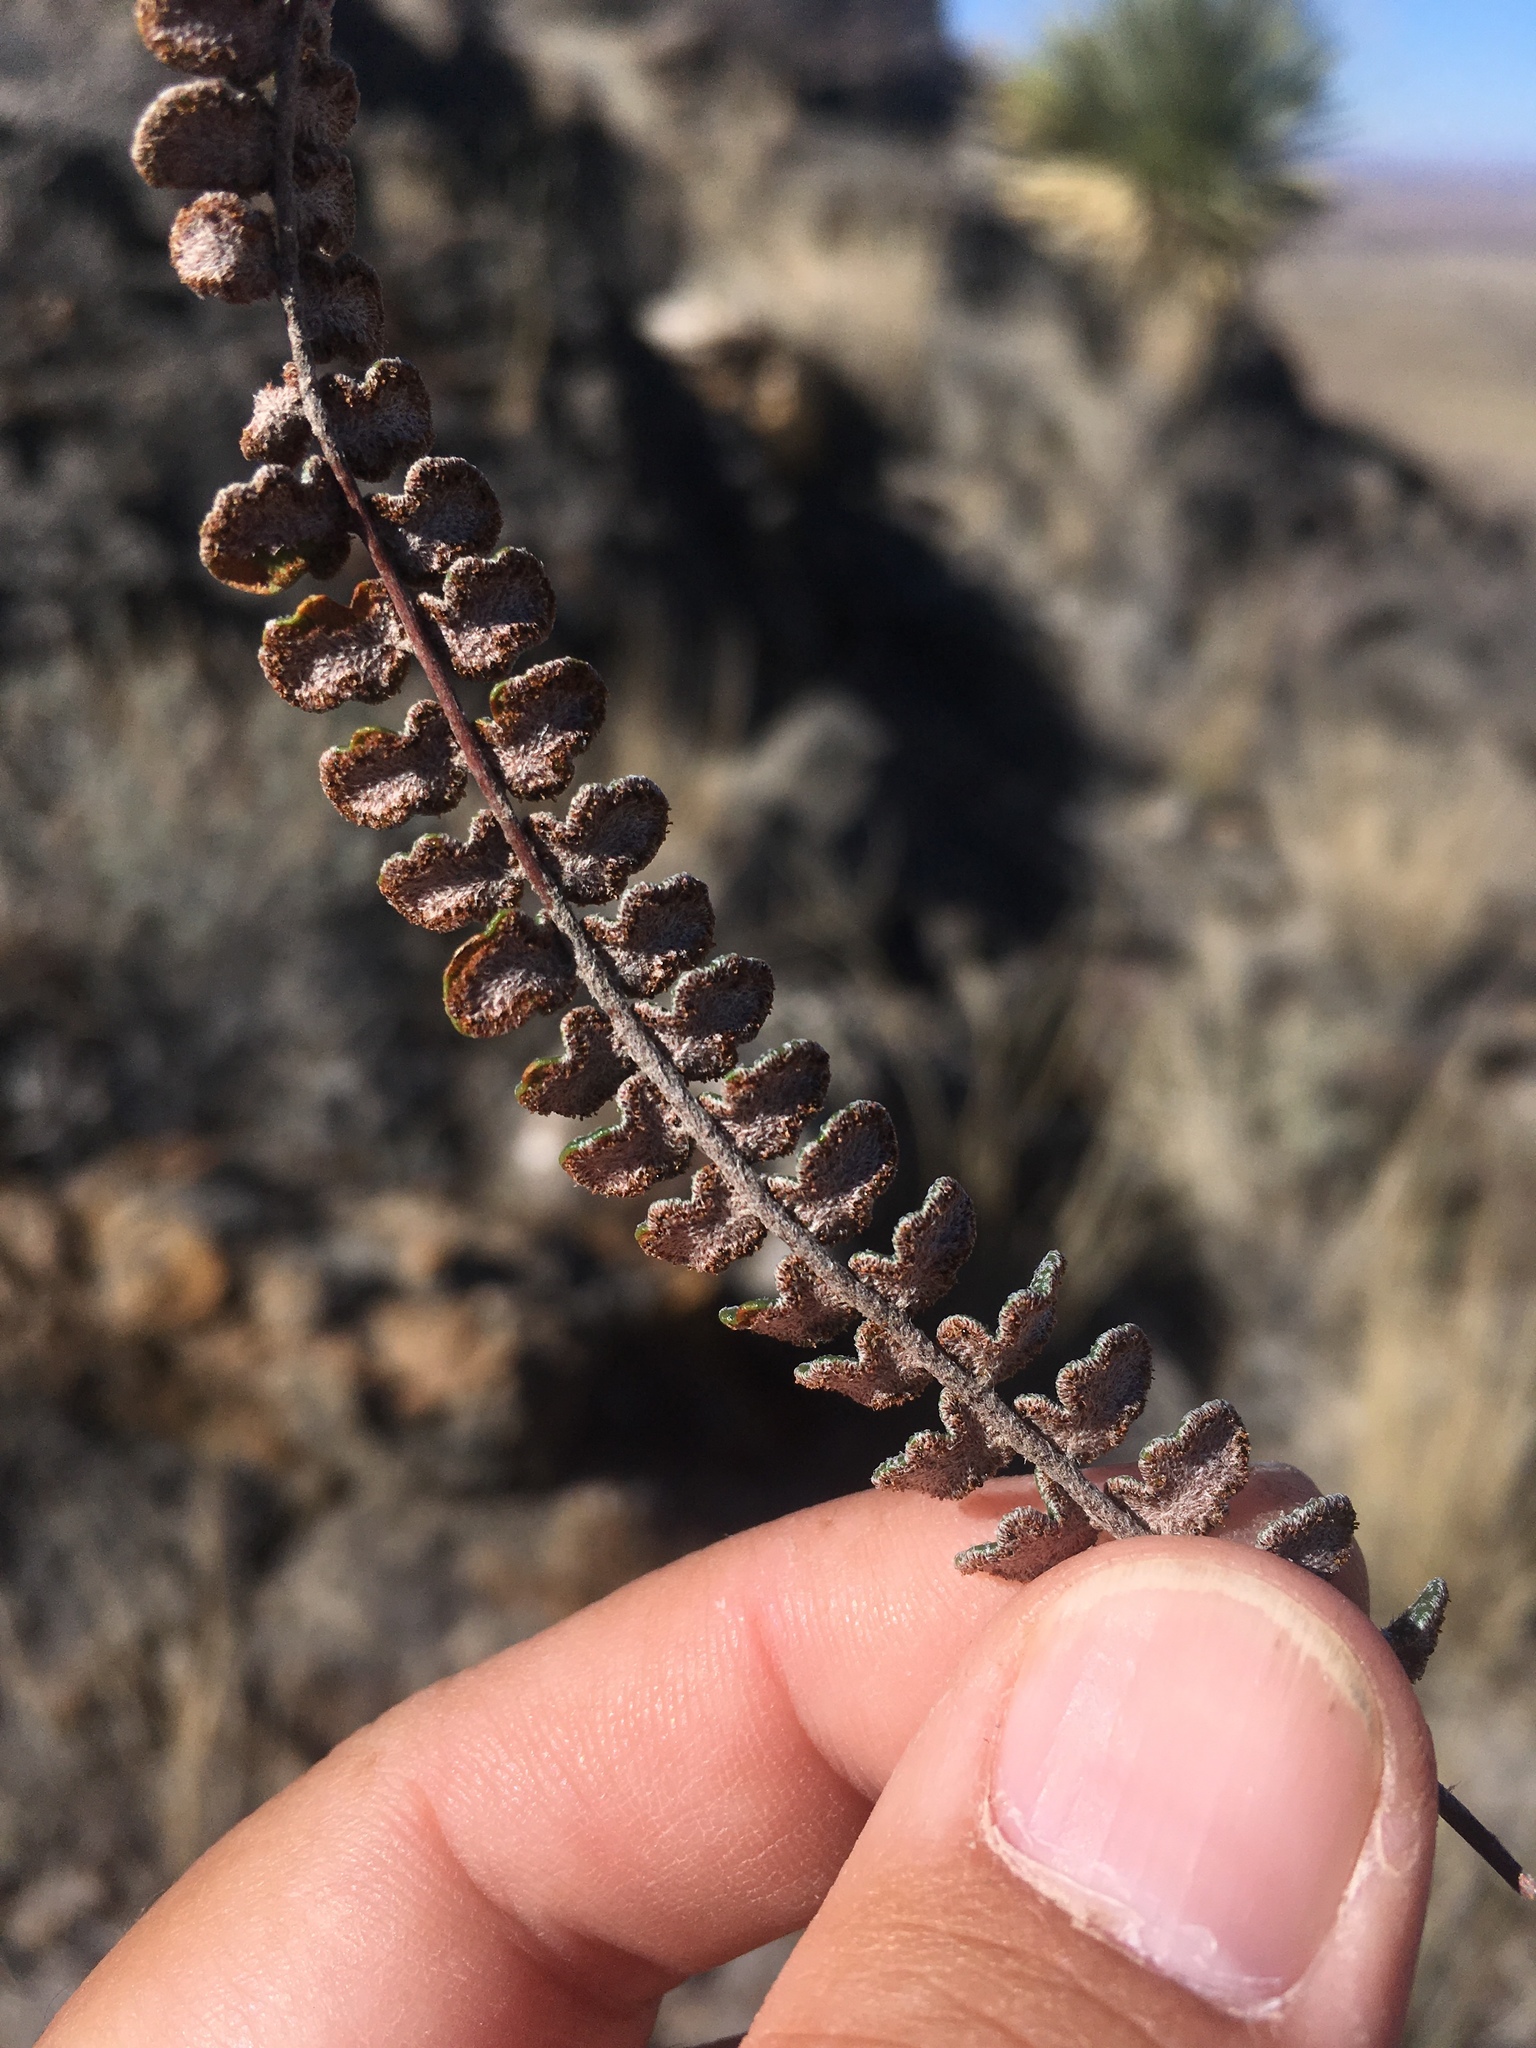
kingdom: Plantae
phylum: Tracheophyta
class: Polypodiopsida
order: Polypodiales
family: Pteridaceae
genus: Astrolepis
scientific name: Astrolepis cochisensis
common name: Scaly cloak fern
